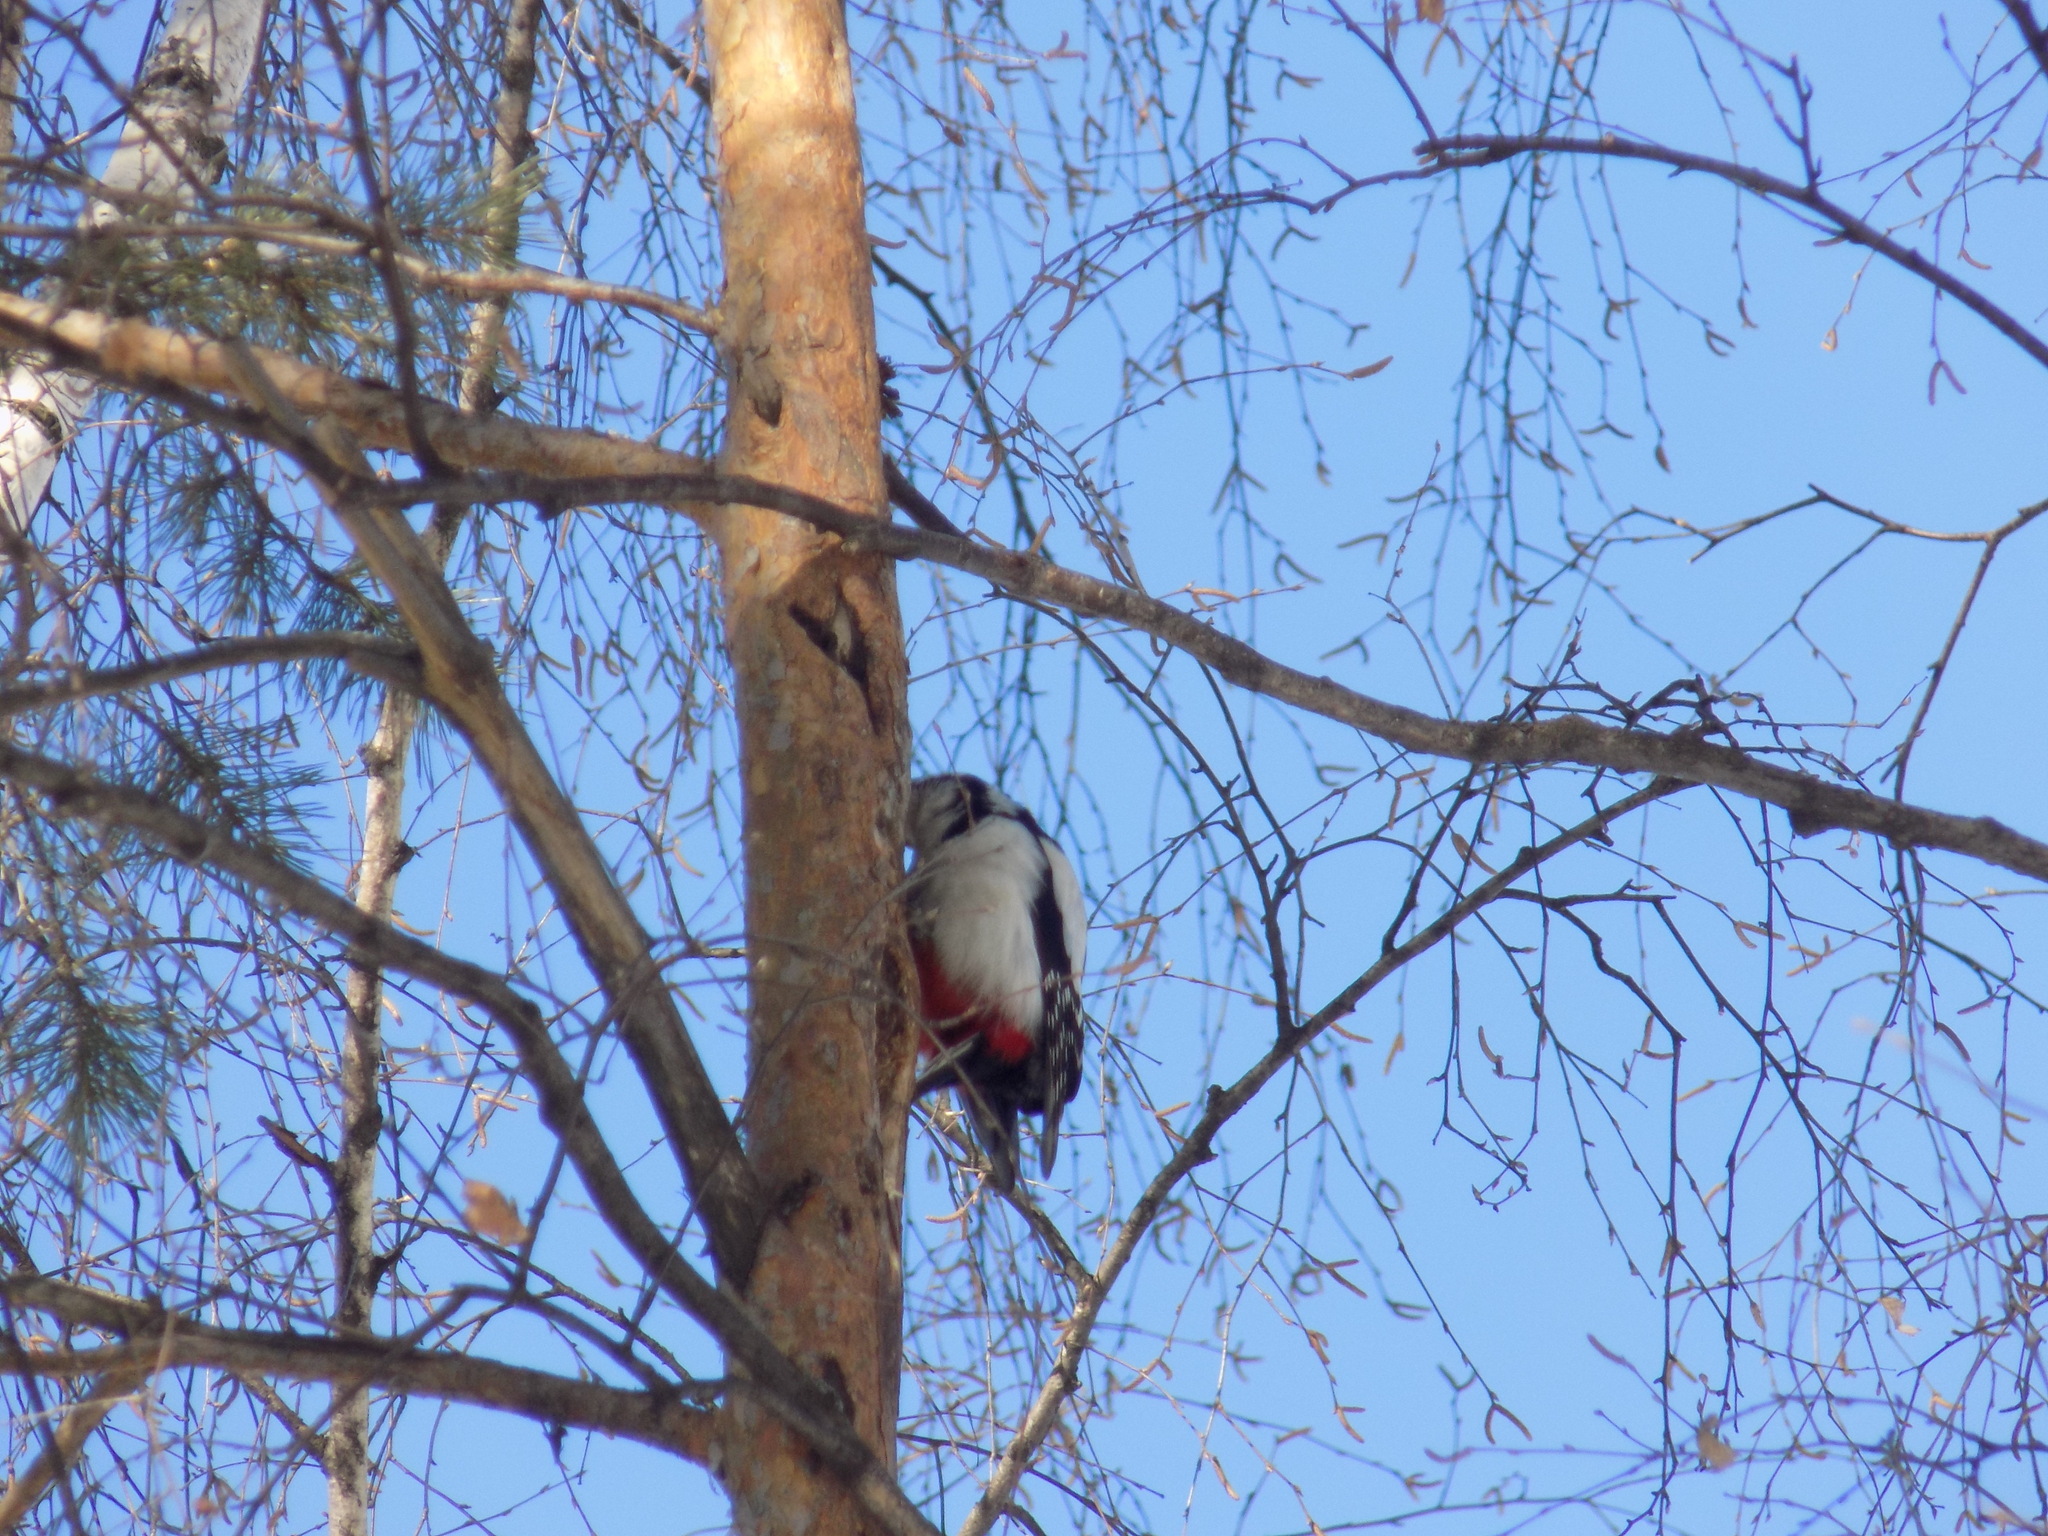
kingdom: Animalia
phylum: Chordata
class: Aves
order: Piciformes
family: Picidae
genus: Dendrocopos
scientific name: Dendrocopos major
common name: Great spotted woodpecker
